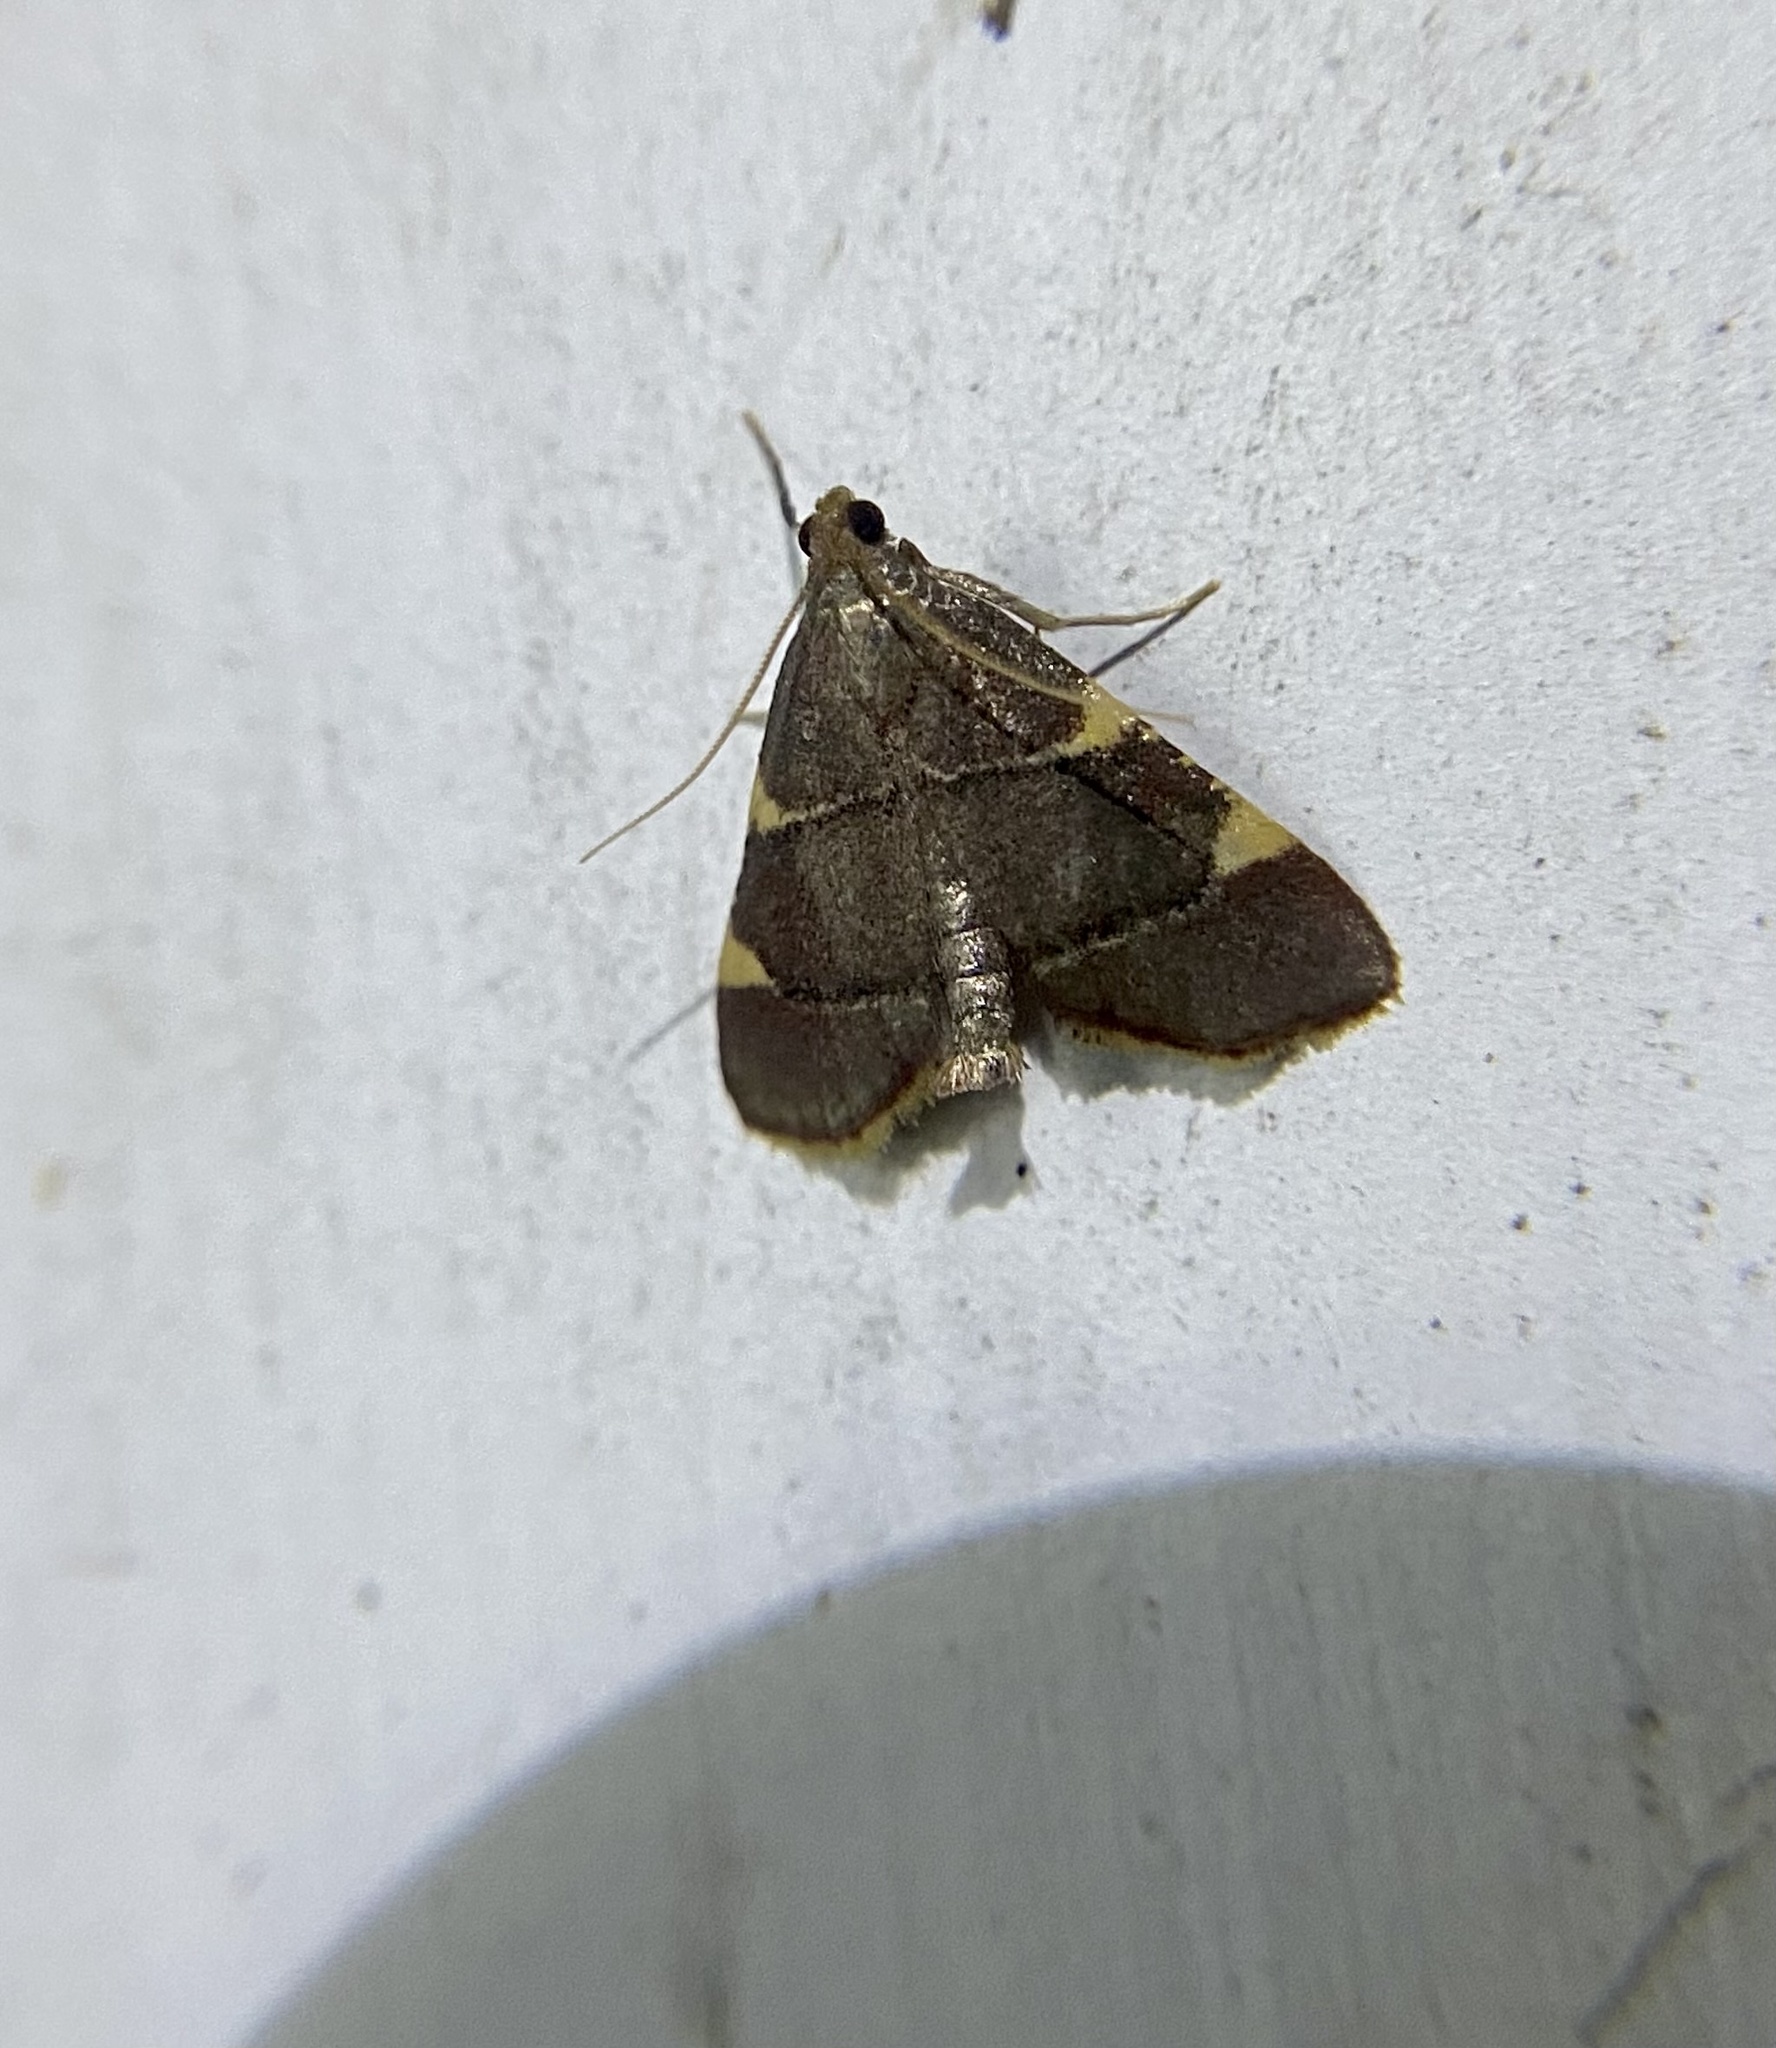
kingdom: Animalia
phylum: Arthropoda
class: Insecta
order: Lepidoptera
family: Pyralidae
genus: Hypsopygia
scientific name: Hypsopygia olinalis
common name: Yellow-fringed dolichomia moth
